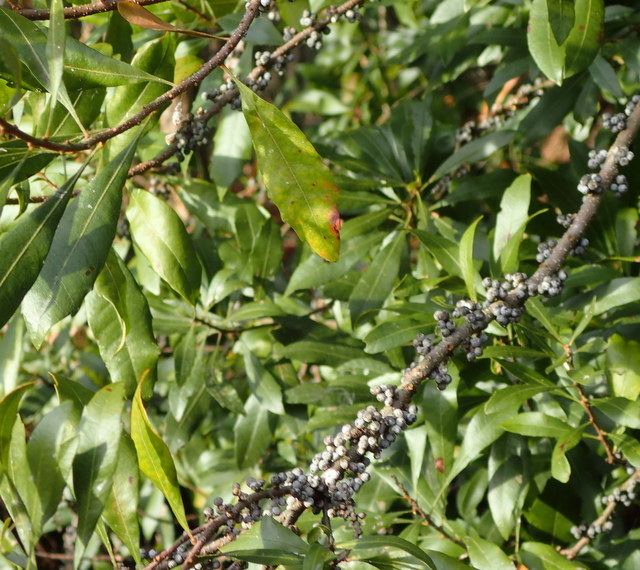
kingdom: Plantae
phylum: Tracheophyta
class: Magnoliopsida
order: Fagales
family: Myricaceae
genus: Morella
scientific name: Morella cerifera
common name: Wax myrtle
